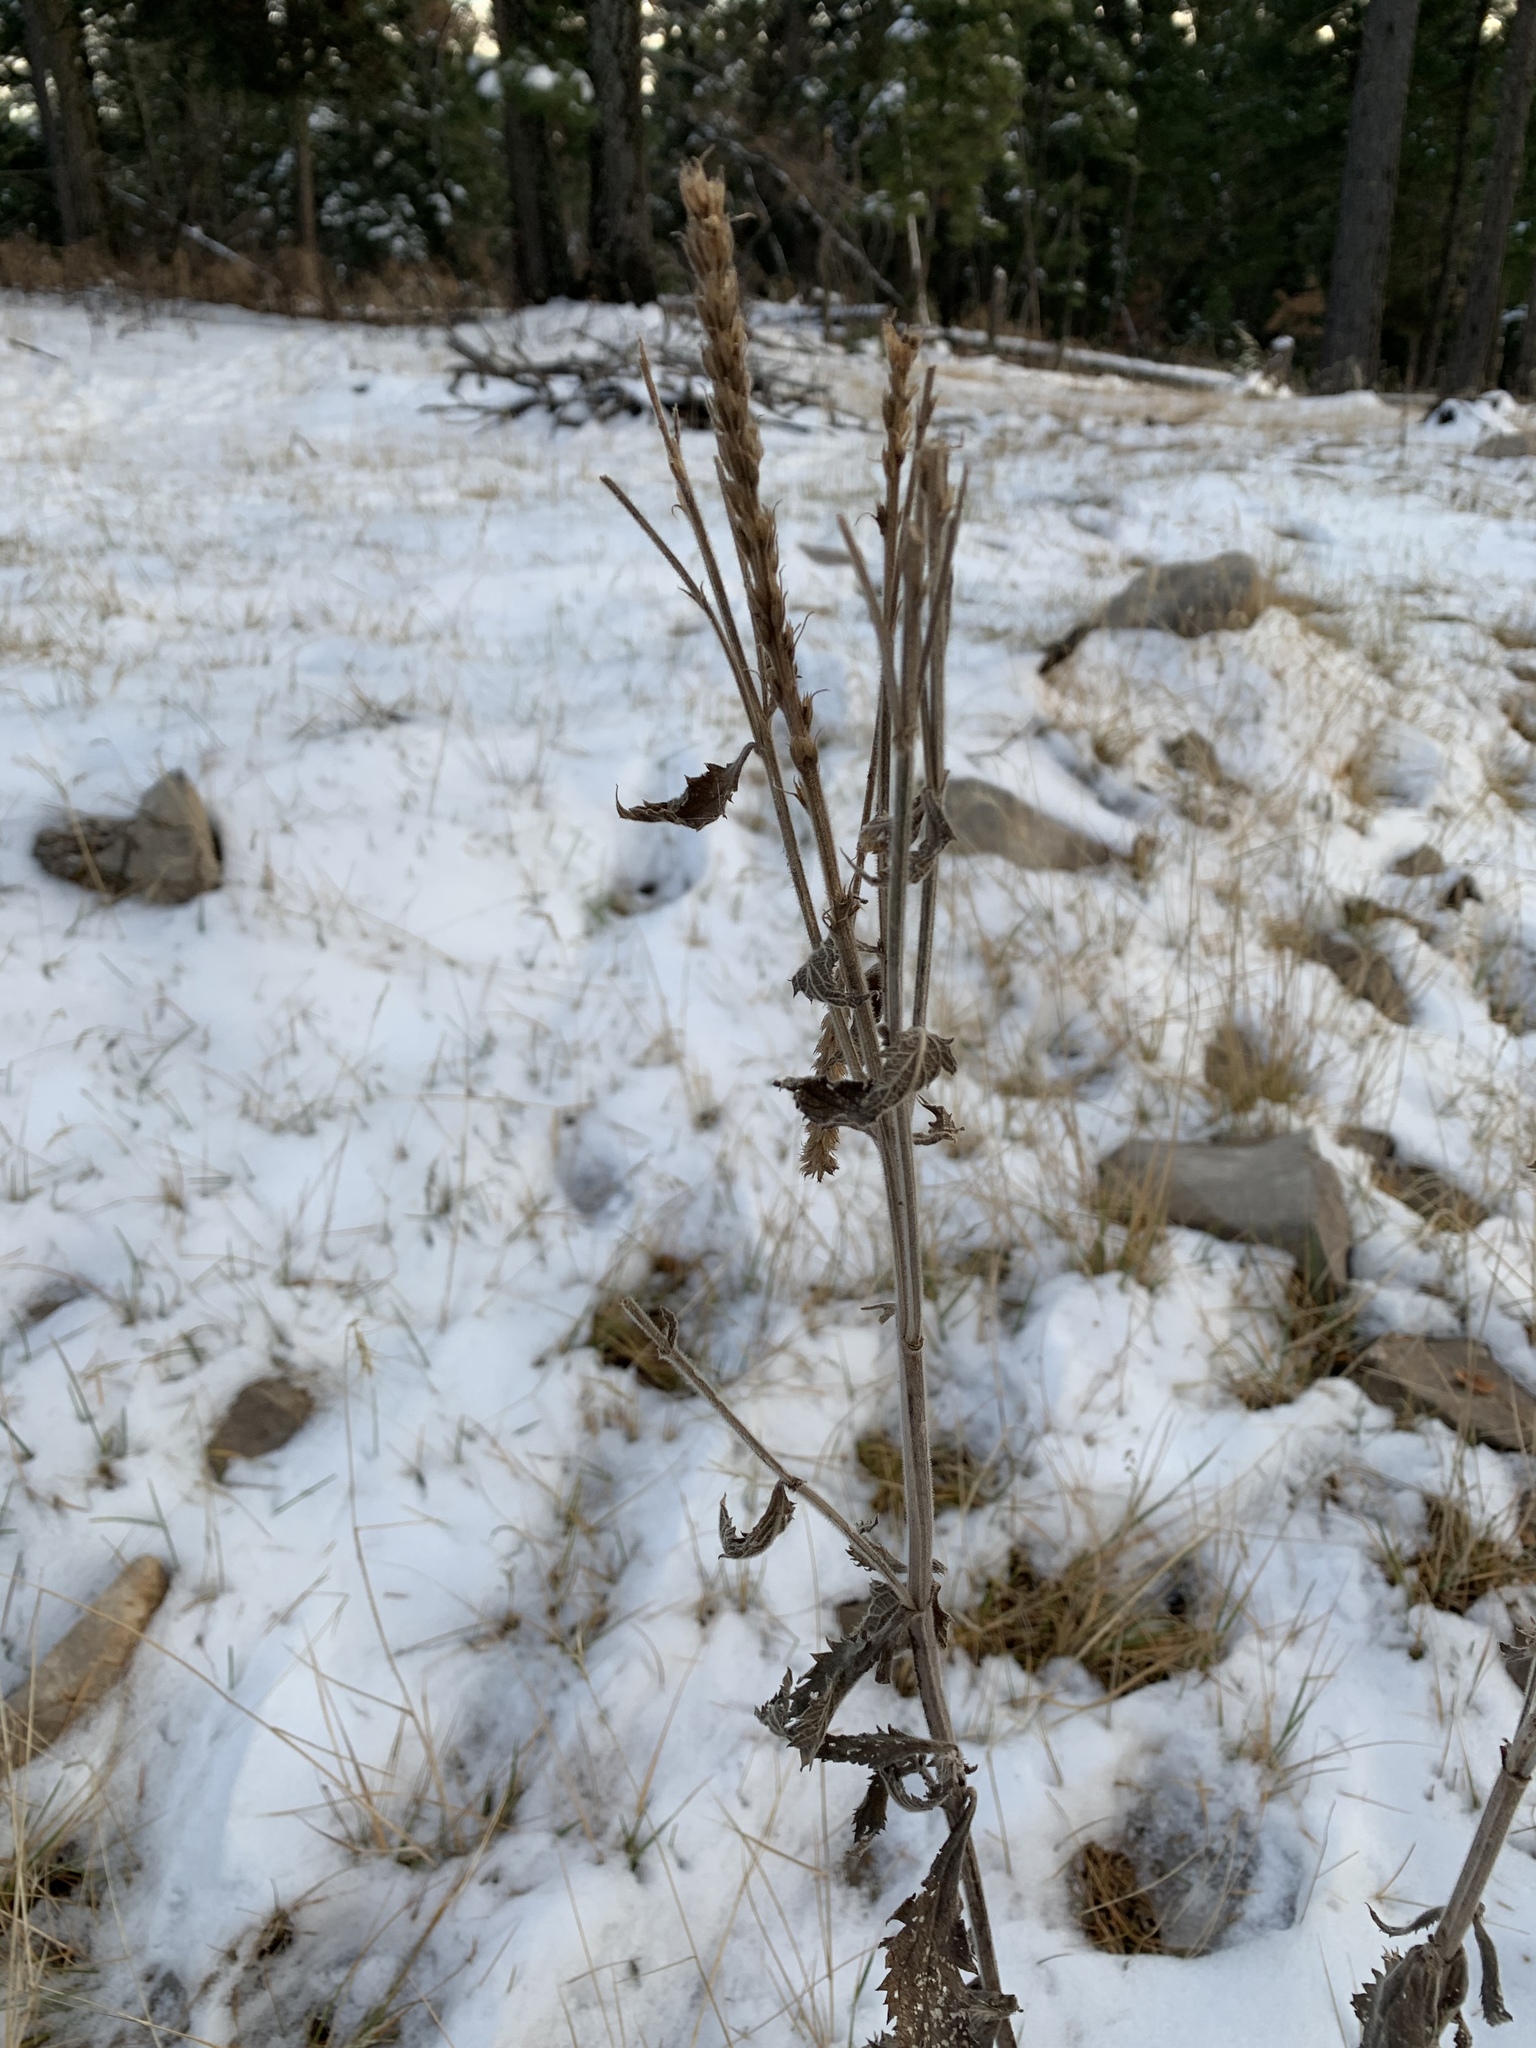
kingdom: Plantae
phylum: Tracheophyta
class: Magnoliopsida
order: Lamiales
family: Verbenaceae
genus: Verbena
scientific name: Verbena macdougalii
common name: New mexico vervain
